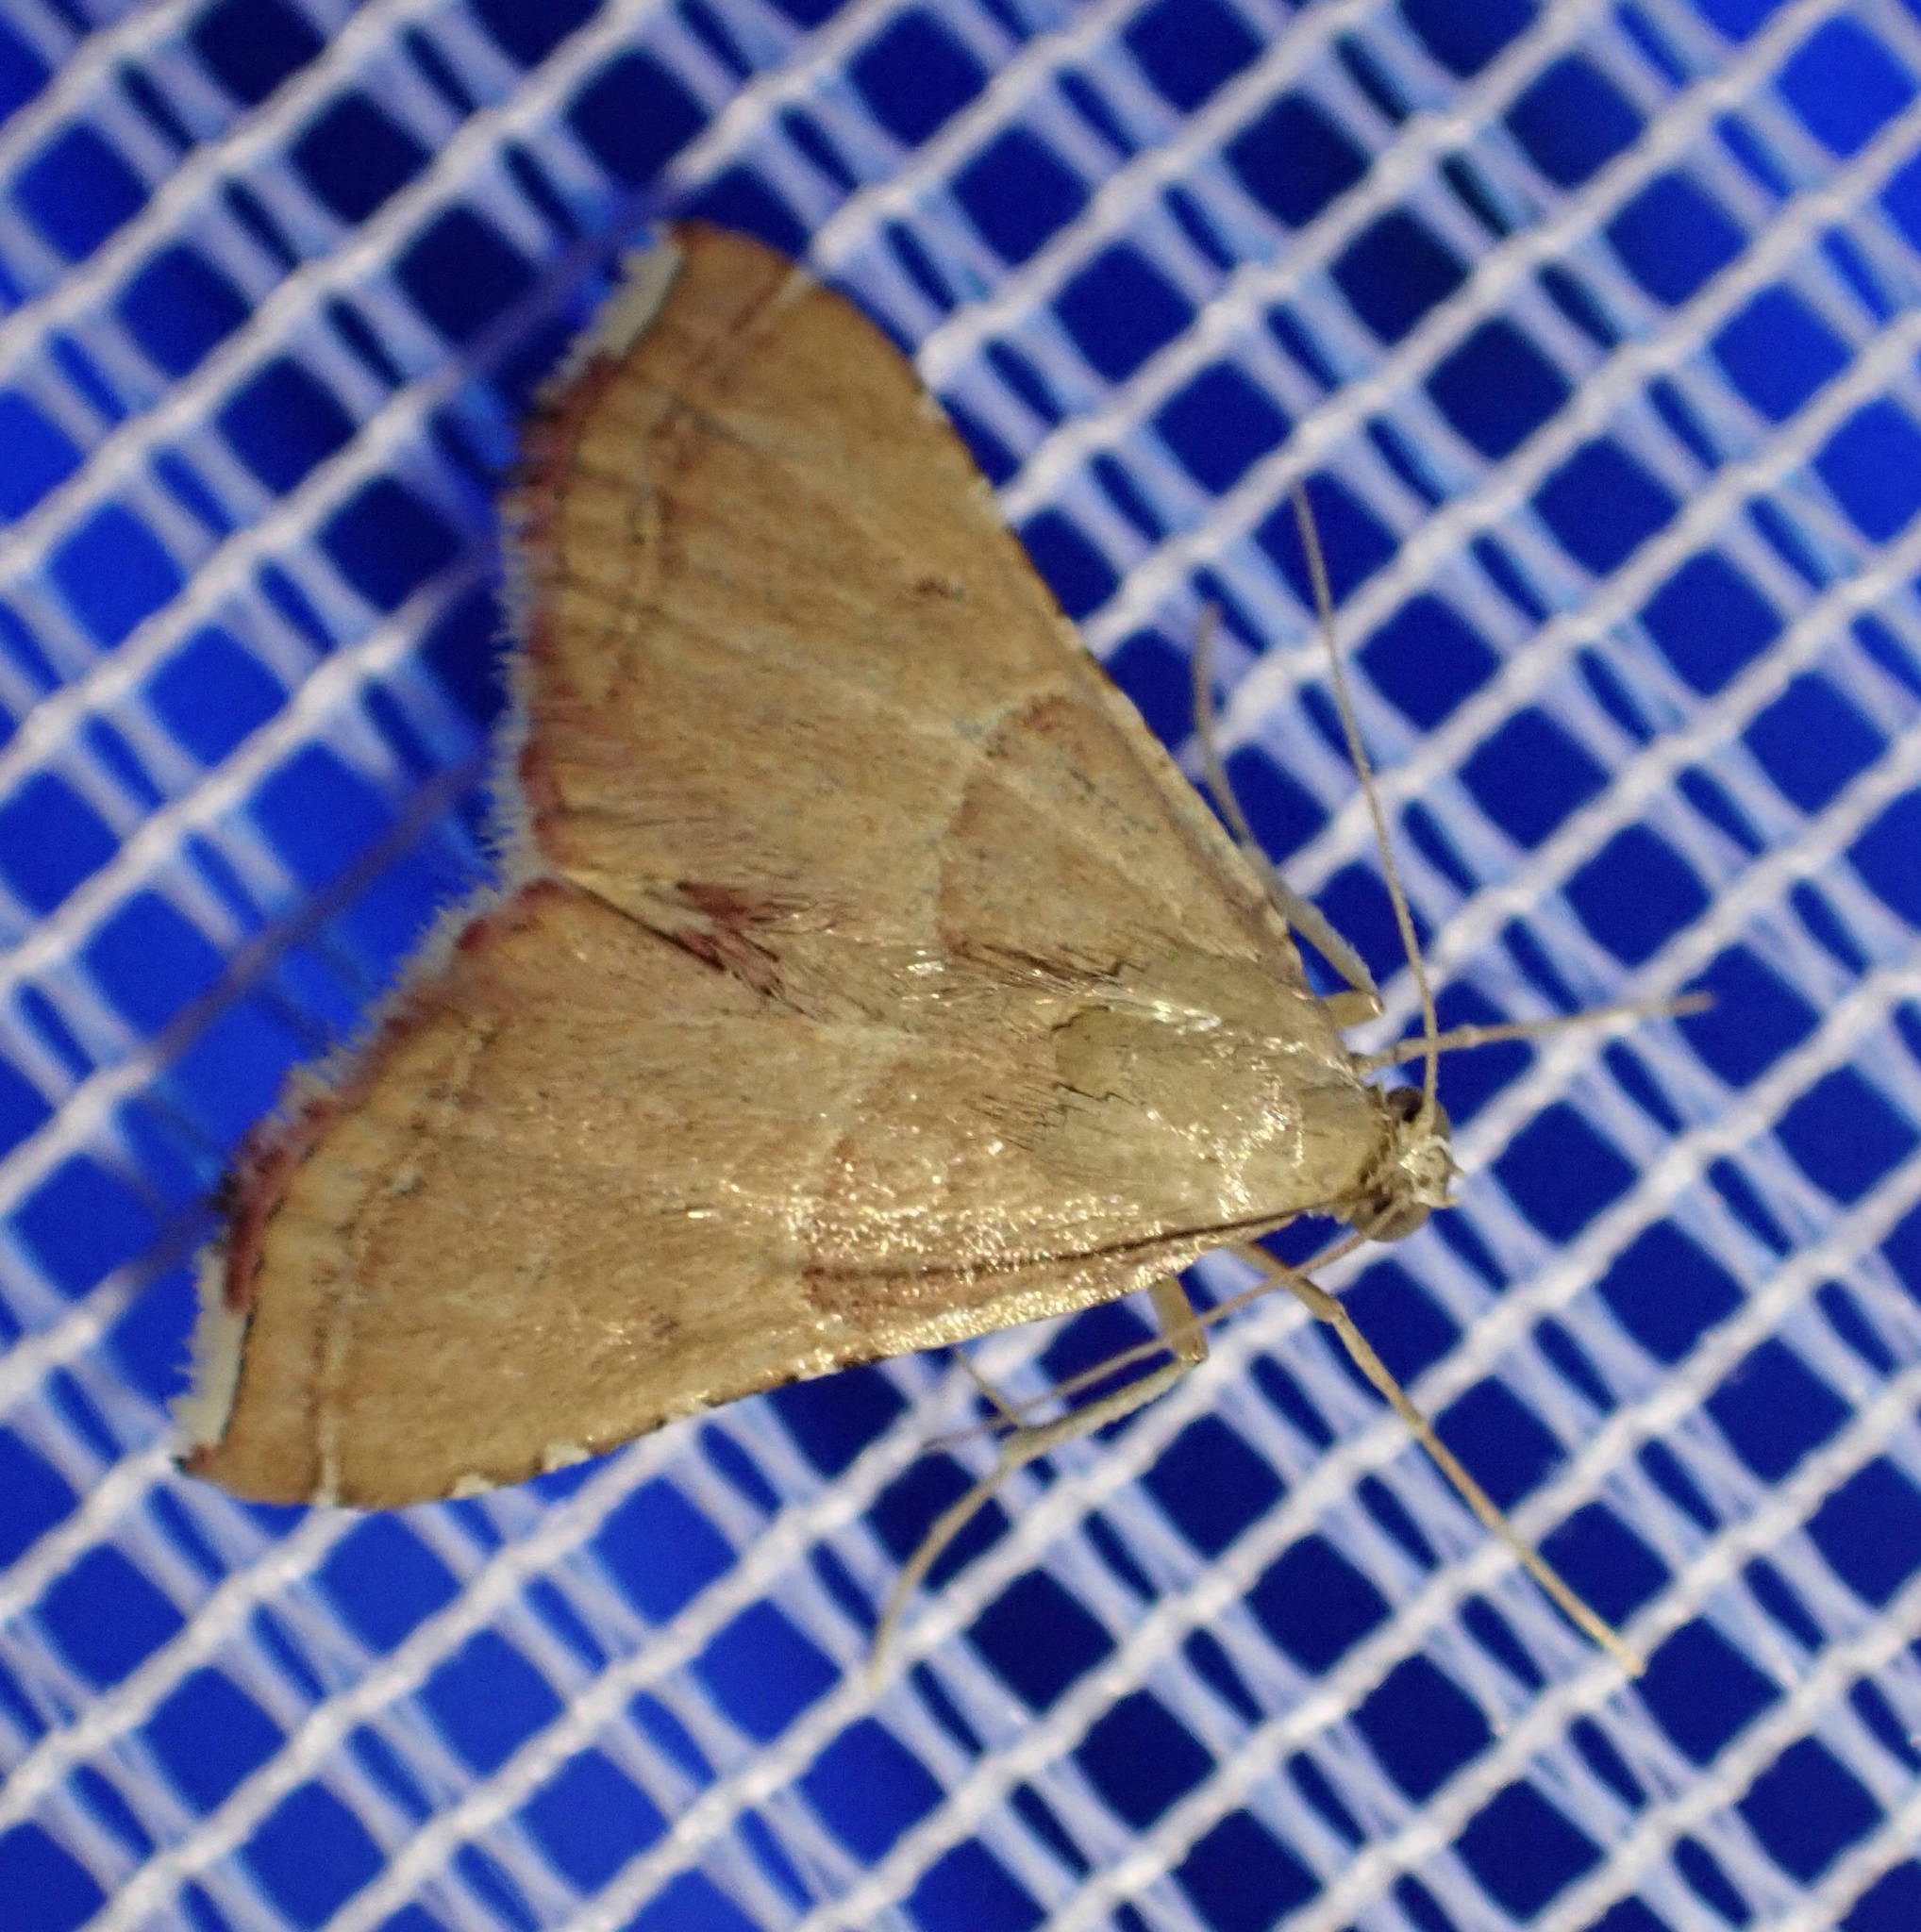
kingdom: Animalia
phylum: Arthropoda
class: Insecta
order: Lepidoptera
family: Pyralidae
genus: Endotricha
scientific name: Endotricha flammealis
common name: Rosy tabby
